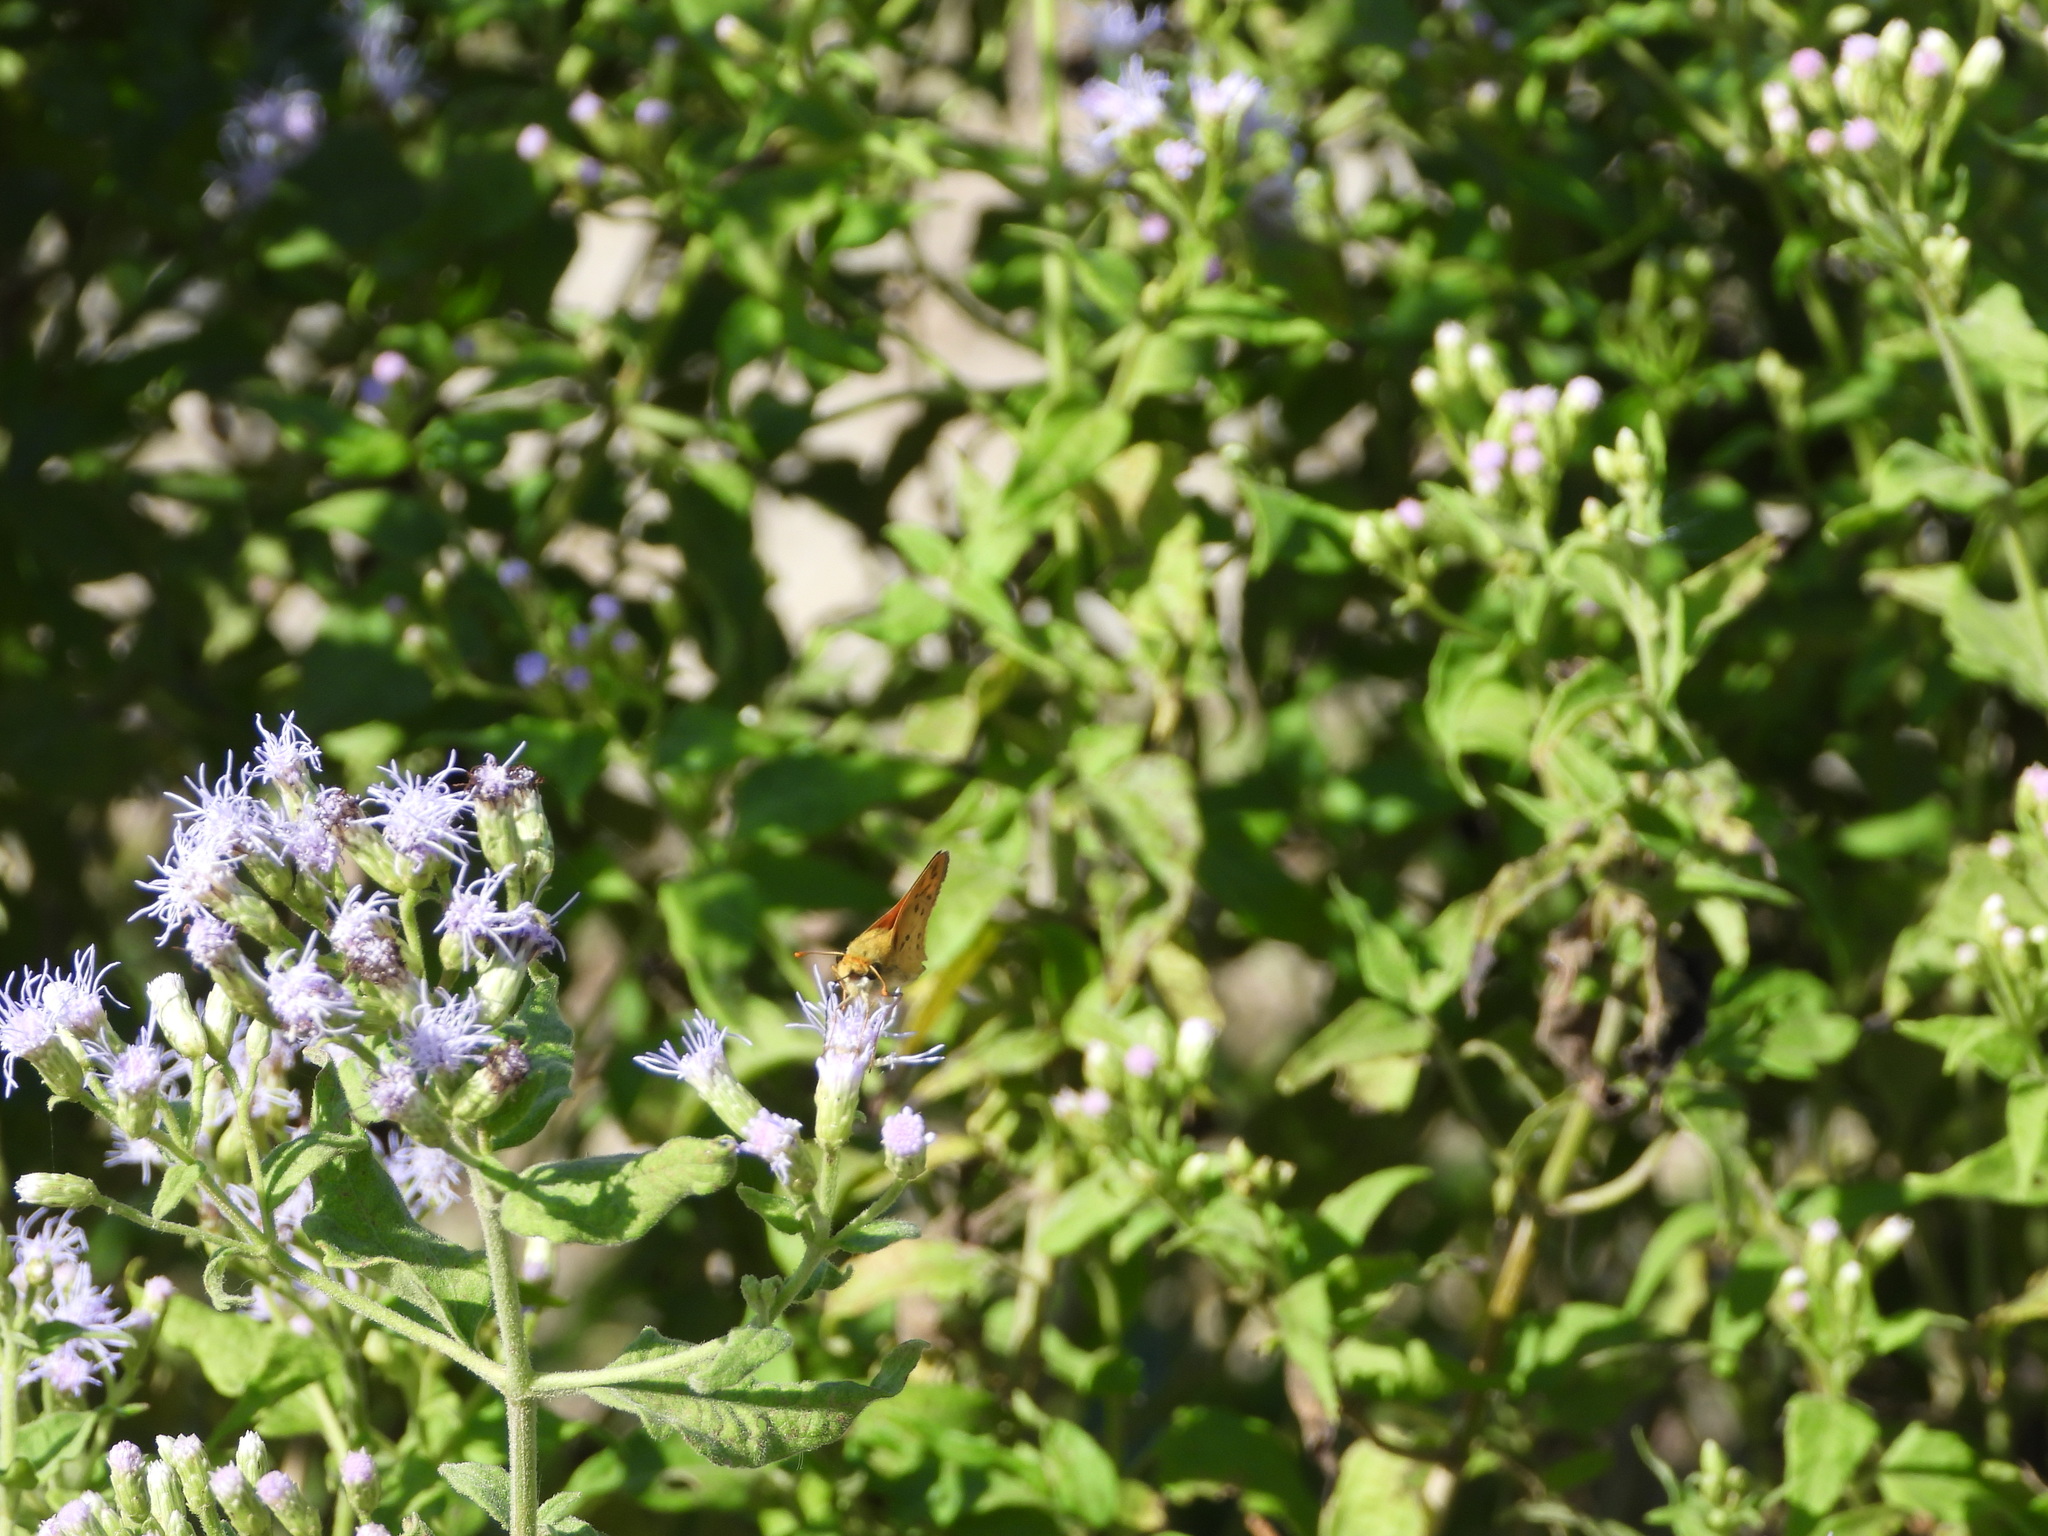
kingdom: Animalia
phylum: Arthropoda
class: Insecta
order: Lepidoptera
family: Hesperiidae
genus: Hylephila
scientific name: Hylephila phyleus
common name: Fiery skipper
